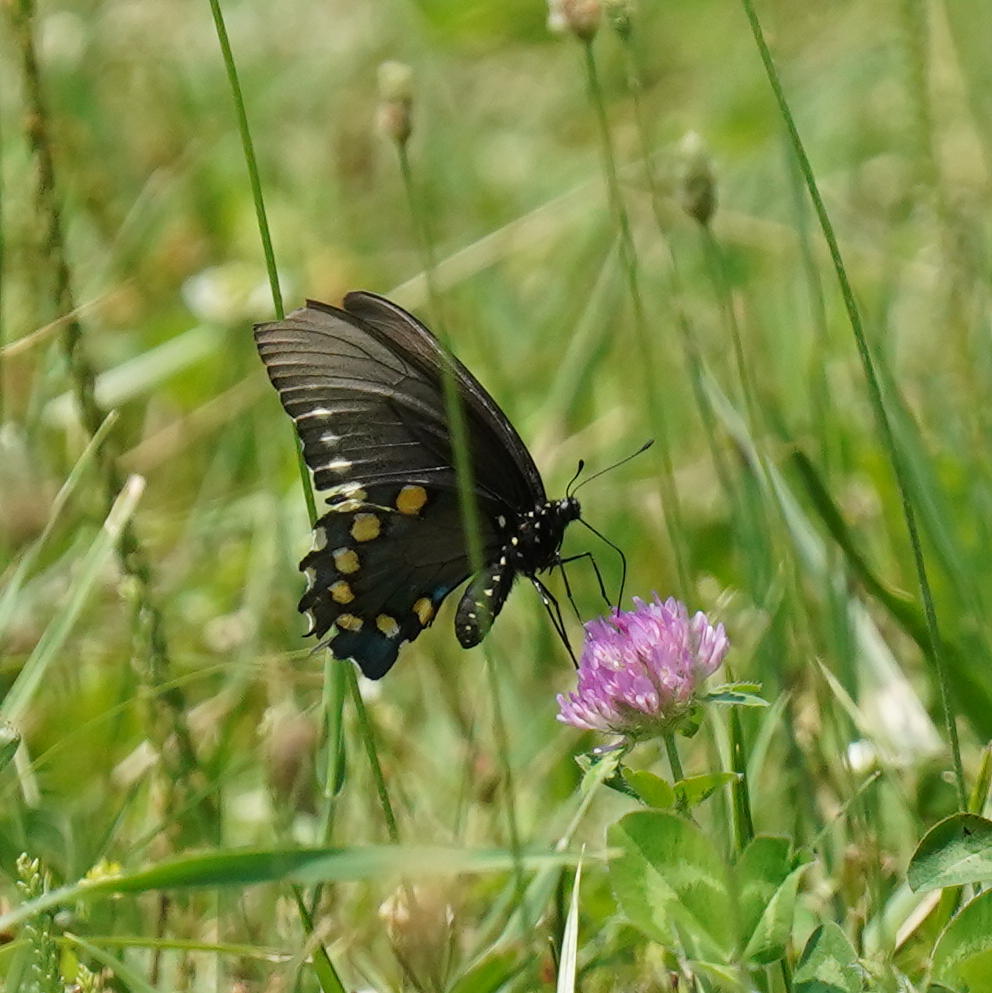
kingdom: Animalia
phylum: Arthropoda
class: Insecta
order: Lepidoptera
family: Papilionidae
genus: Battus
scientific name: Battus philenor
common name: Pipevine swallowtail
